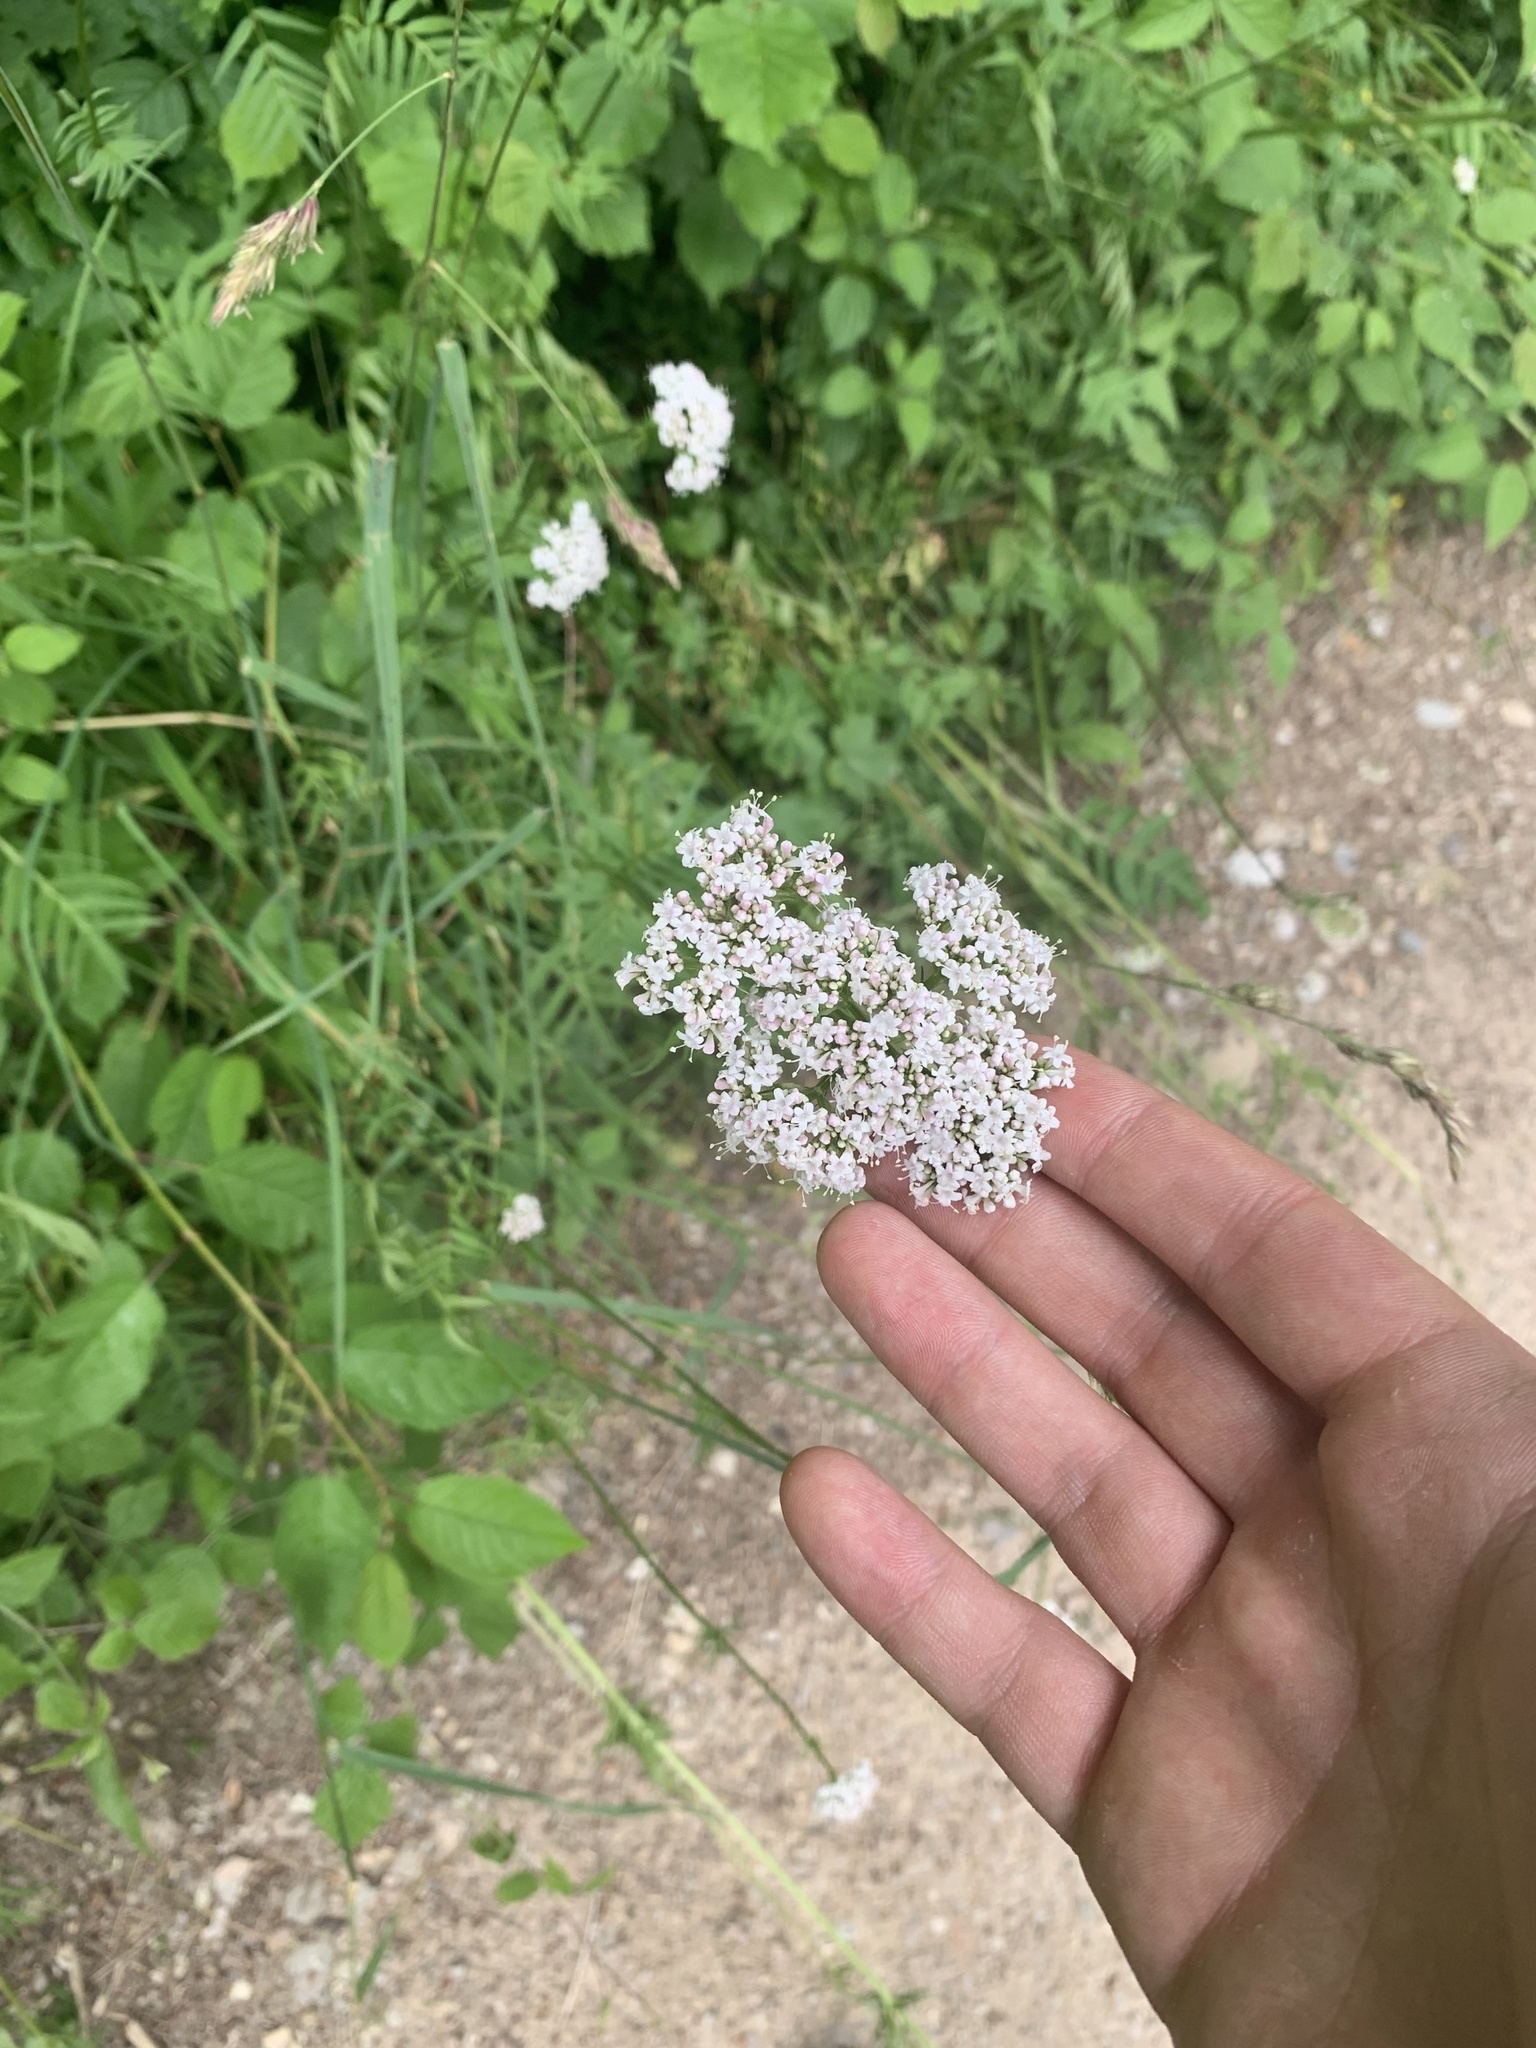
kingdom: Plantae
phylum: Tracheophyta
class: Magnoliopsida
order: Dipsacales
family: Caprifoliaceae
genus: Valeriana
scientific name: Valeriana officinalis
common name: Common valerian
